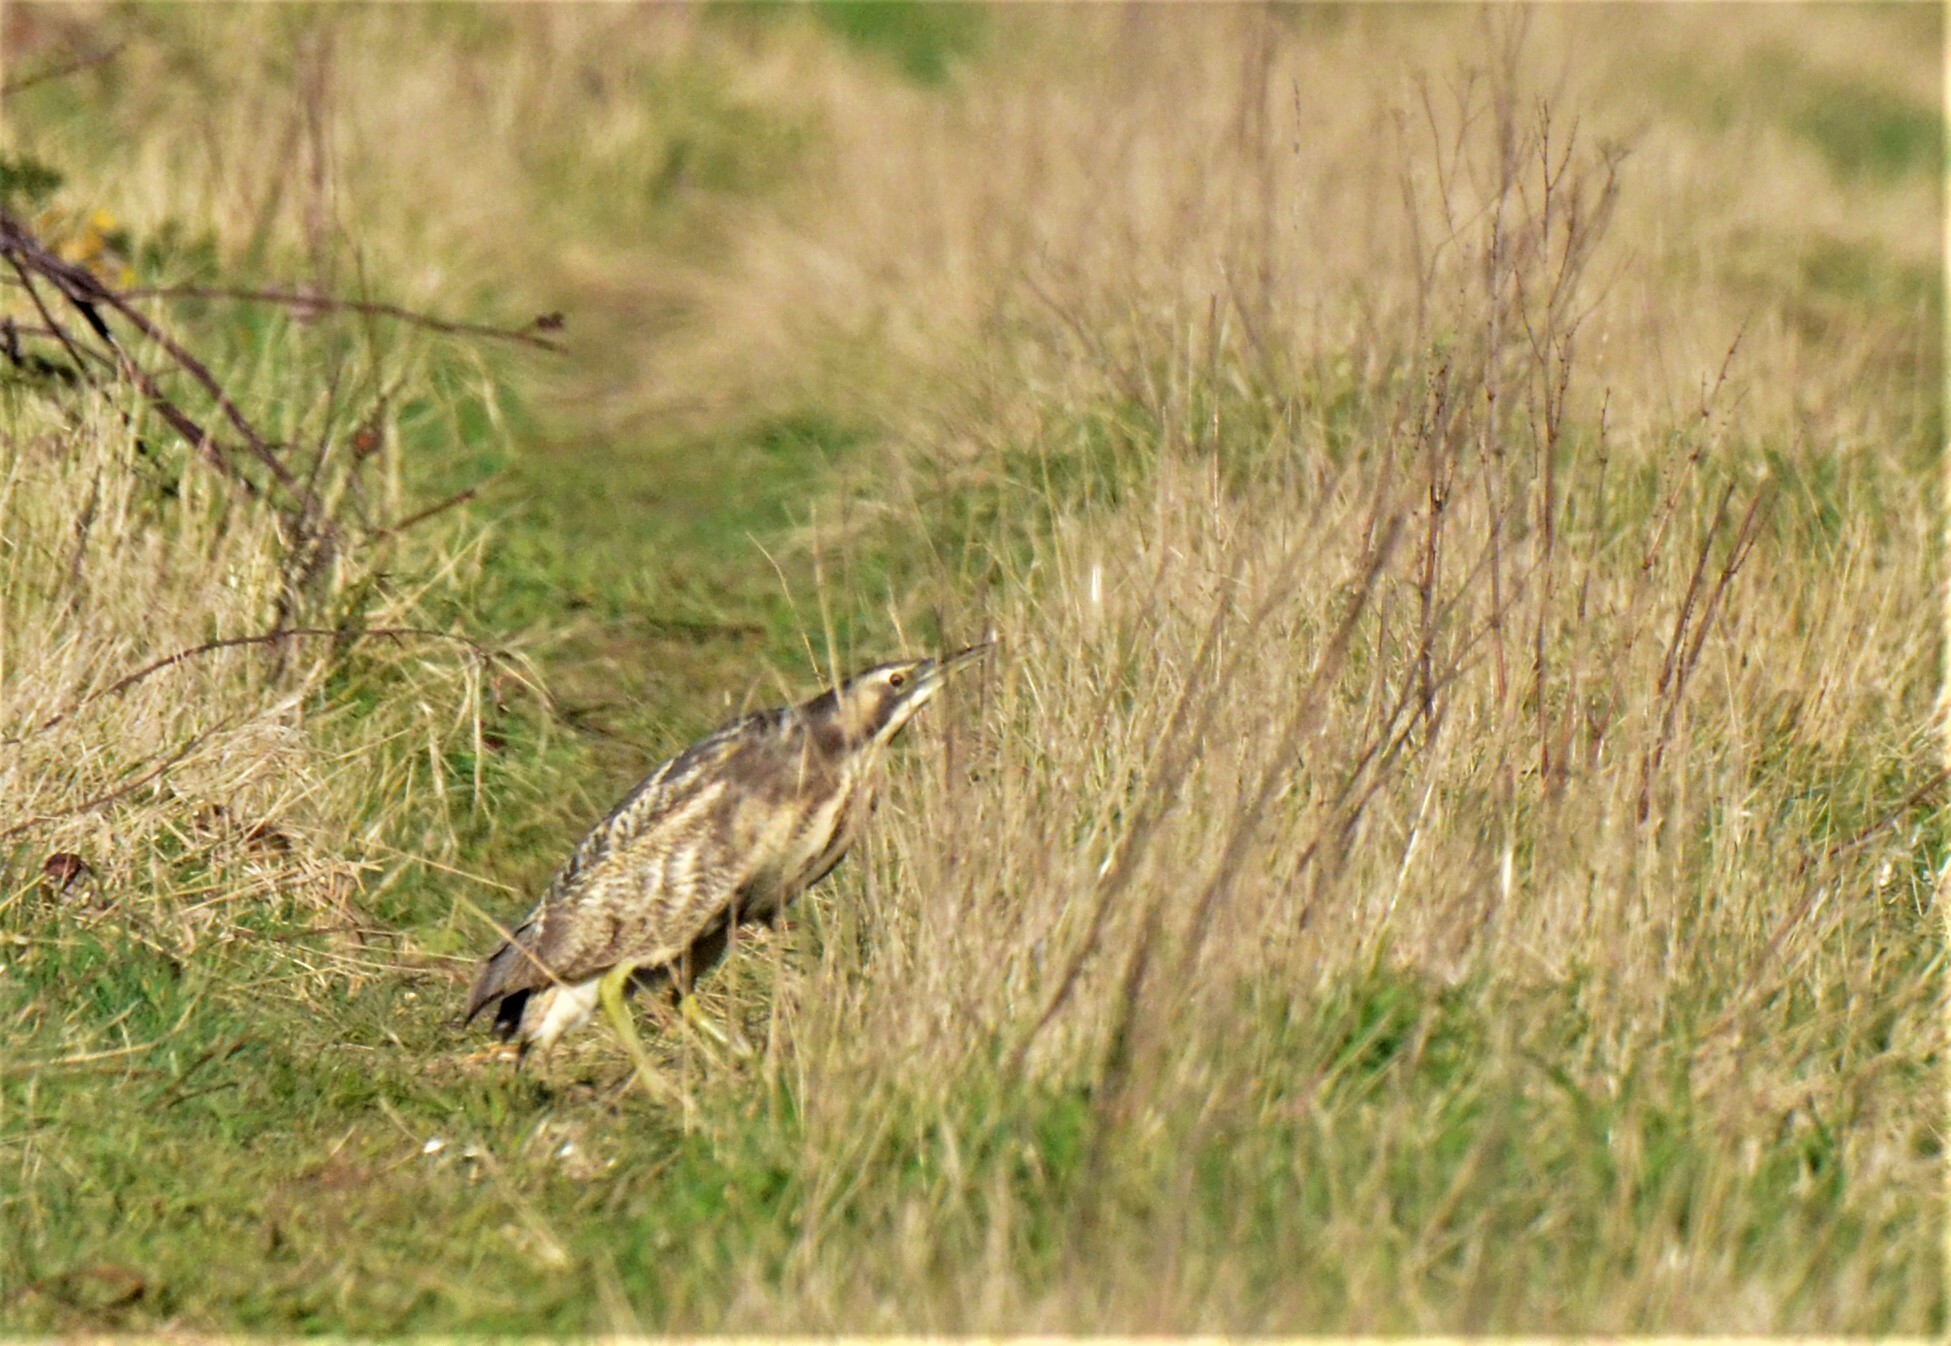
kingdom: Animalia
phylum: Chordata
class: Aves
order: Pelecaniformes
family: Ardeidae
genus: Botaurus
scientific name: Botaurus poiciloptilus
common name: Australasian bittern
